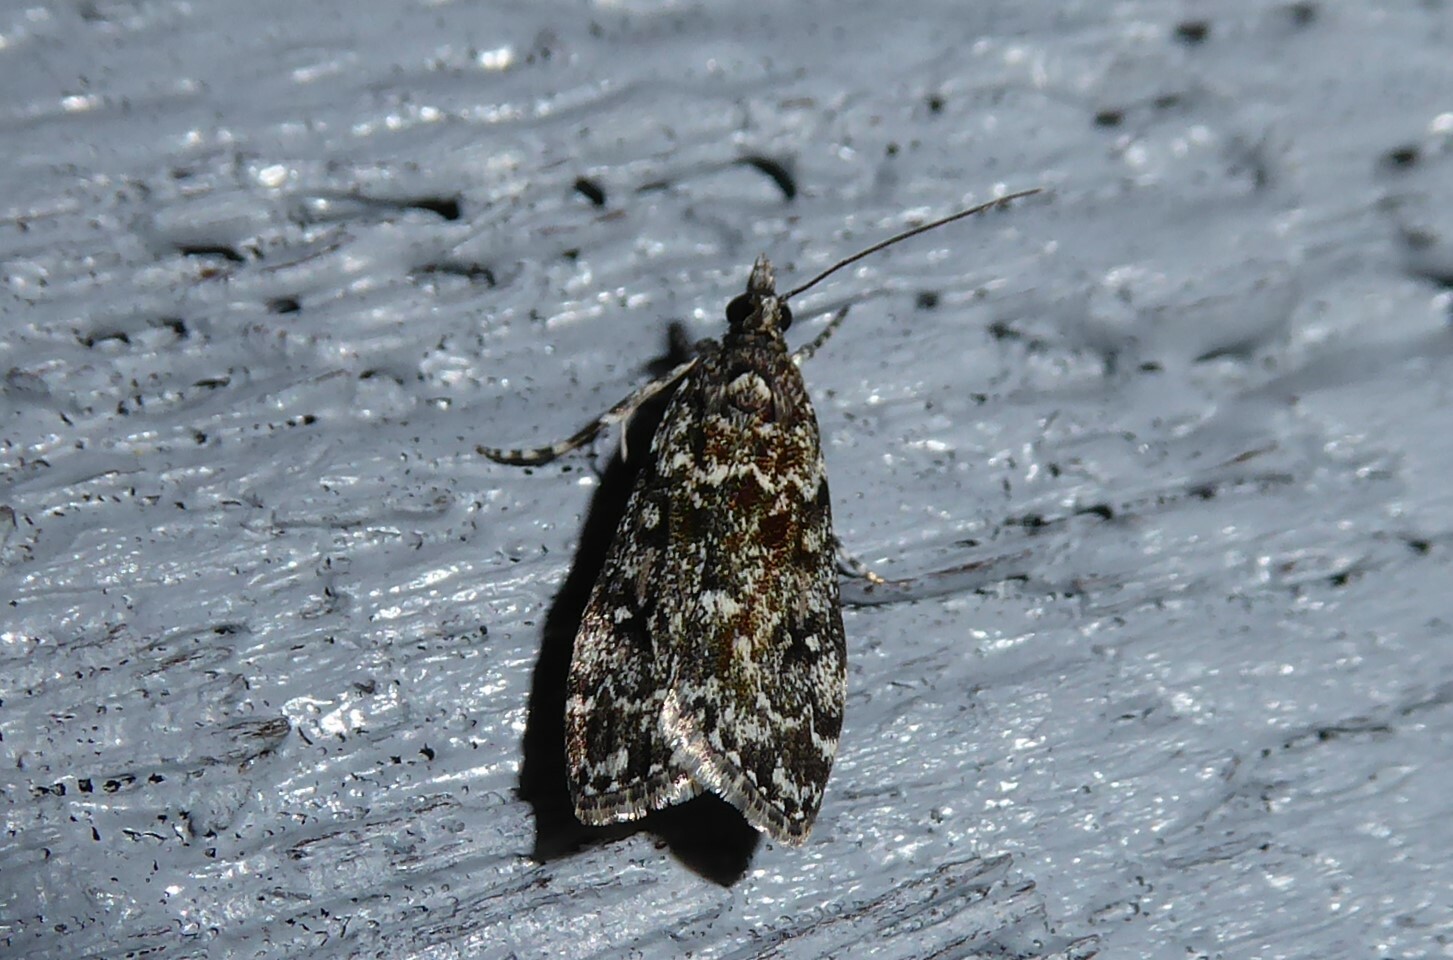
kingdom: Animalia
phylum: Arthropoda
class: Insecta
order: Lepidoptera
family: Crambidae
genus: Eudonia
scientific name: Eudonia philerga
